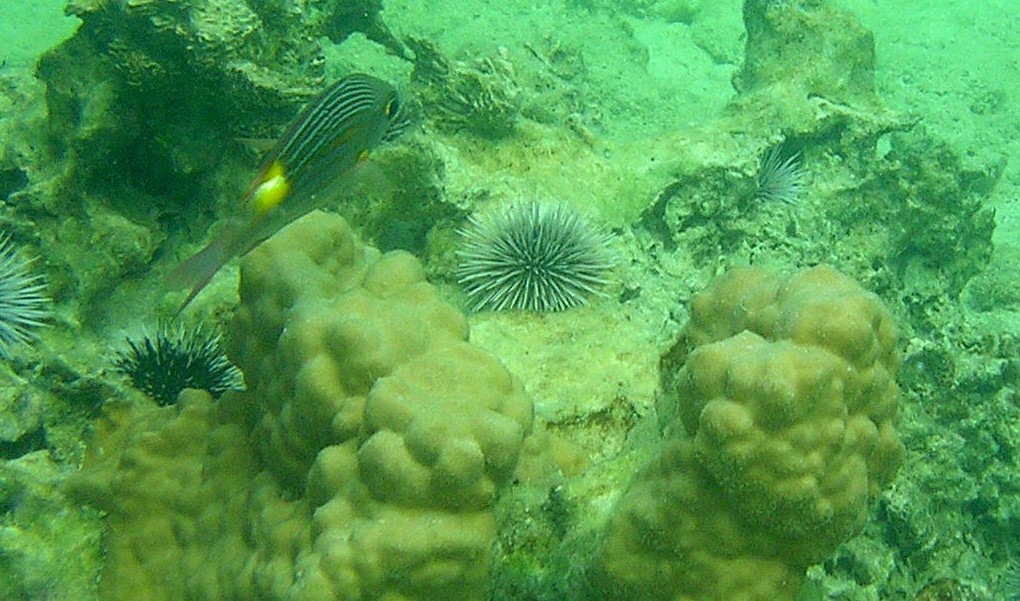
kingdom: Animalia
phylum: Chordata
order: Perciformes
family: Lethrinidae
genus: Gnathodentex
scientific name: Gnathodentex aureolineatus
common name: Gold-lined sea bream
